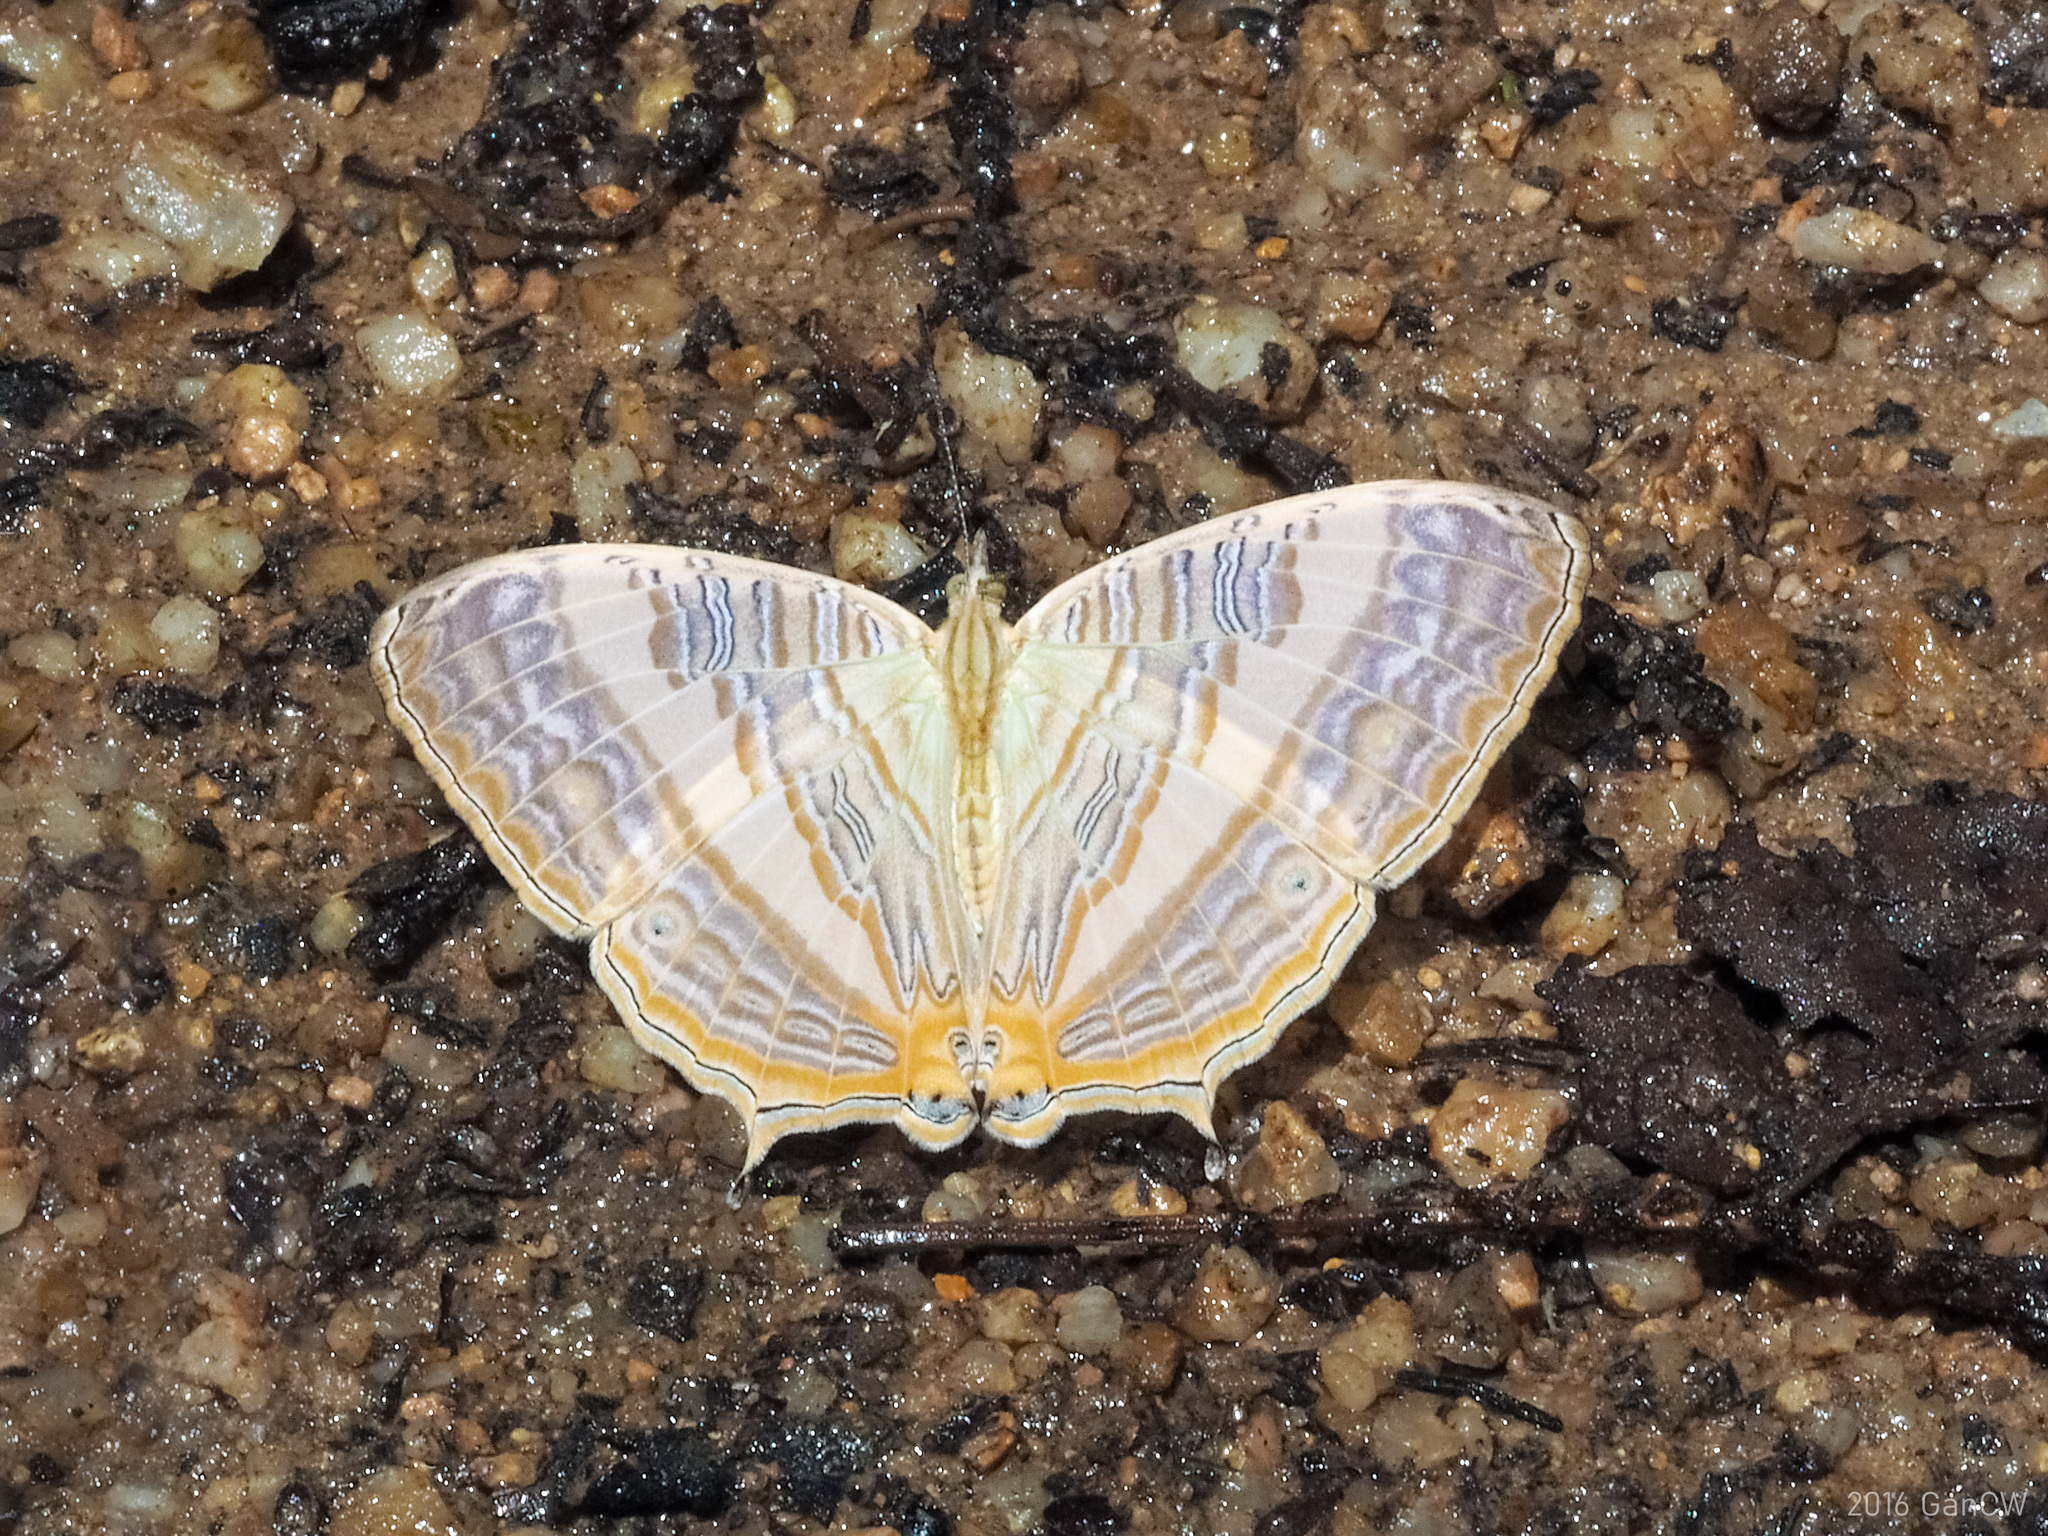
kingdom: Animalia
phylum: Arthropoda
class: Insecta
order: Lepidoptera
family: Nymphalidae
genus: Cyrestis
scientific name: Cyrestis cocles
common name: Marbled map
